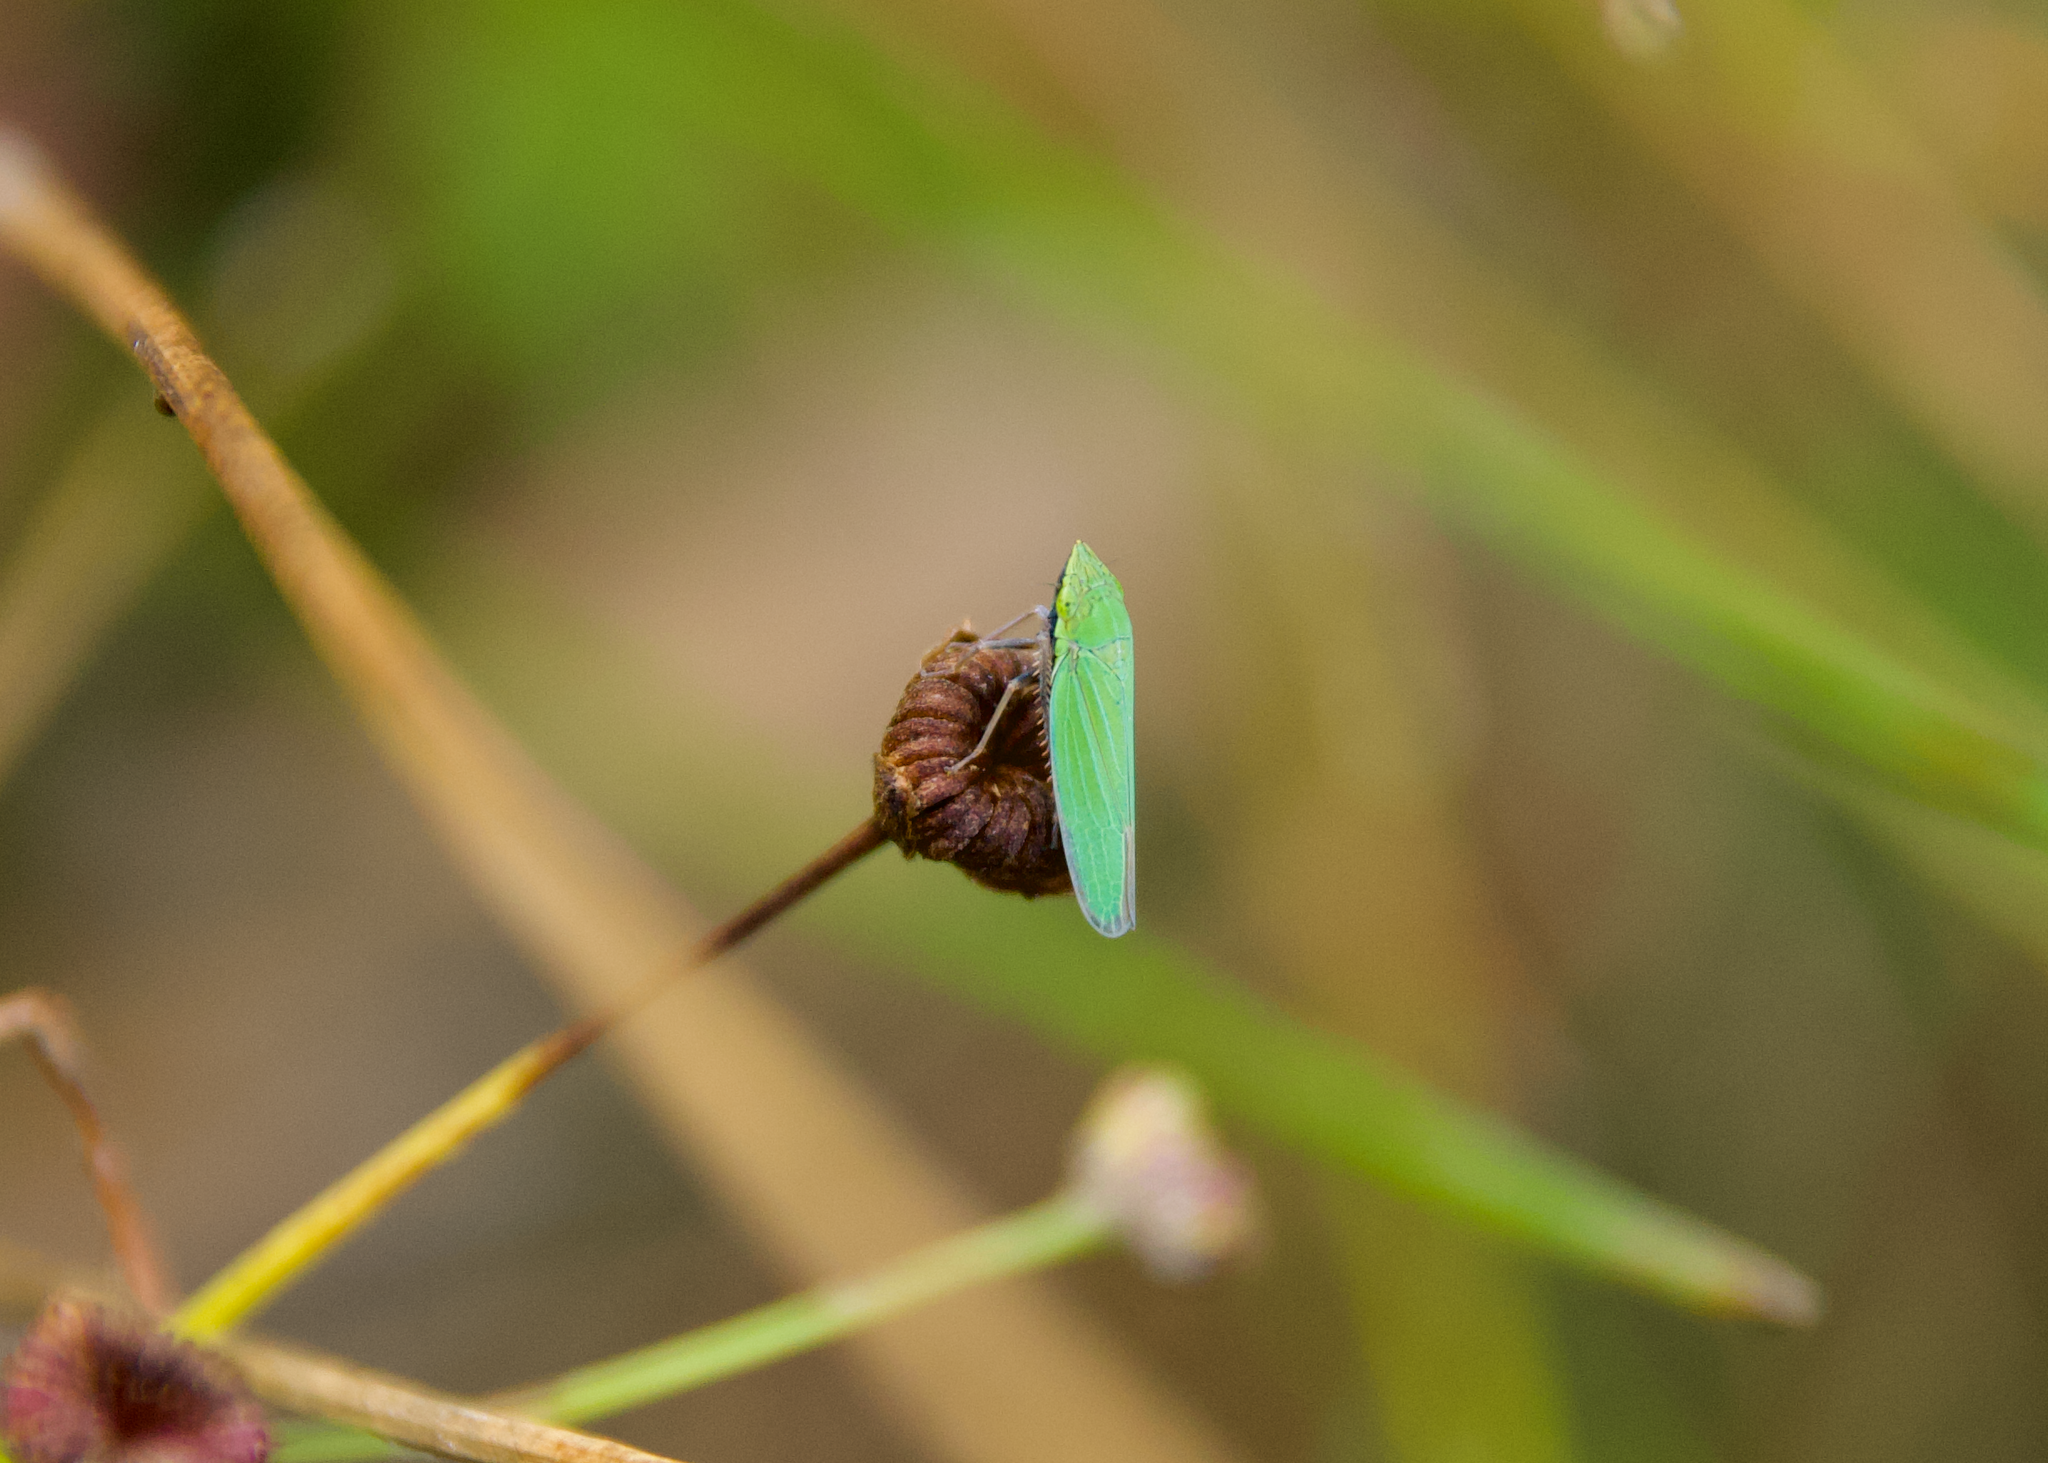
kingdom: Animalia
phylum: Arthropoda
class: Insecta
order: Hemiptera
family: Cicadellidae
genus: Draeculacephala
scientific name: Draeculacephala robinsoni
